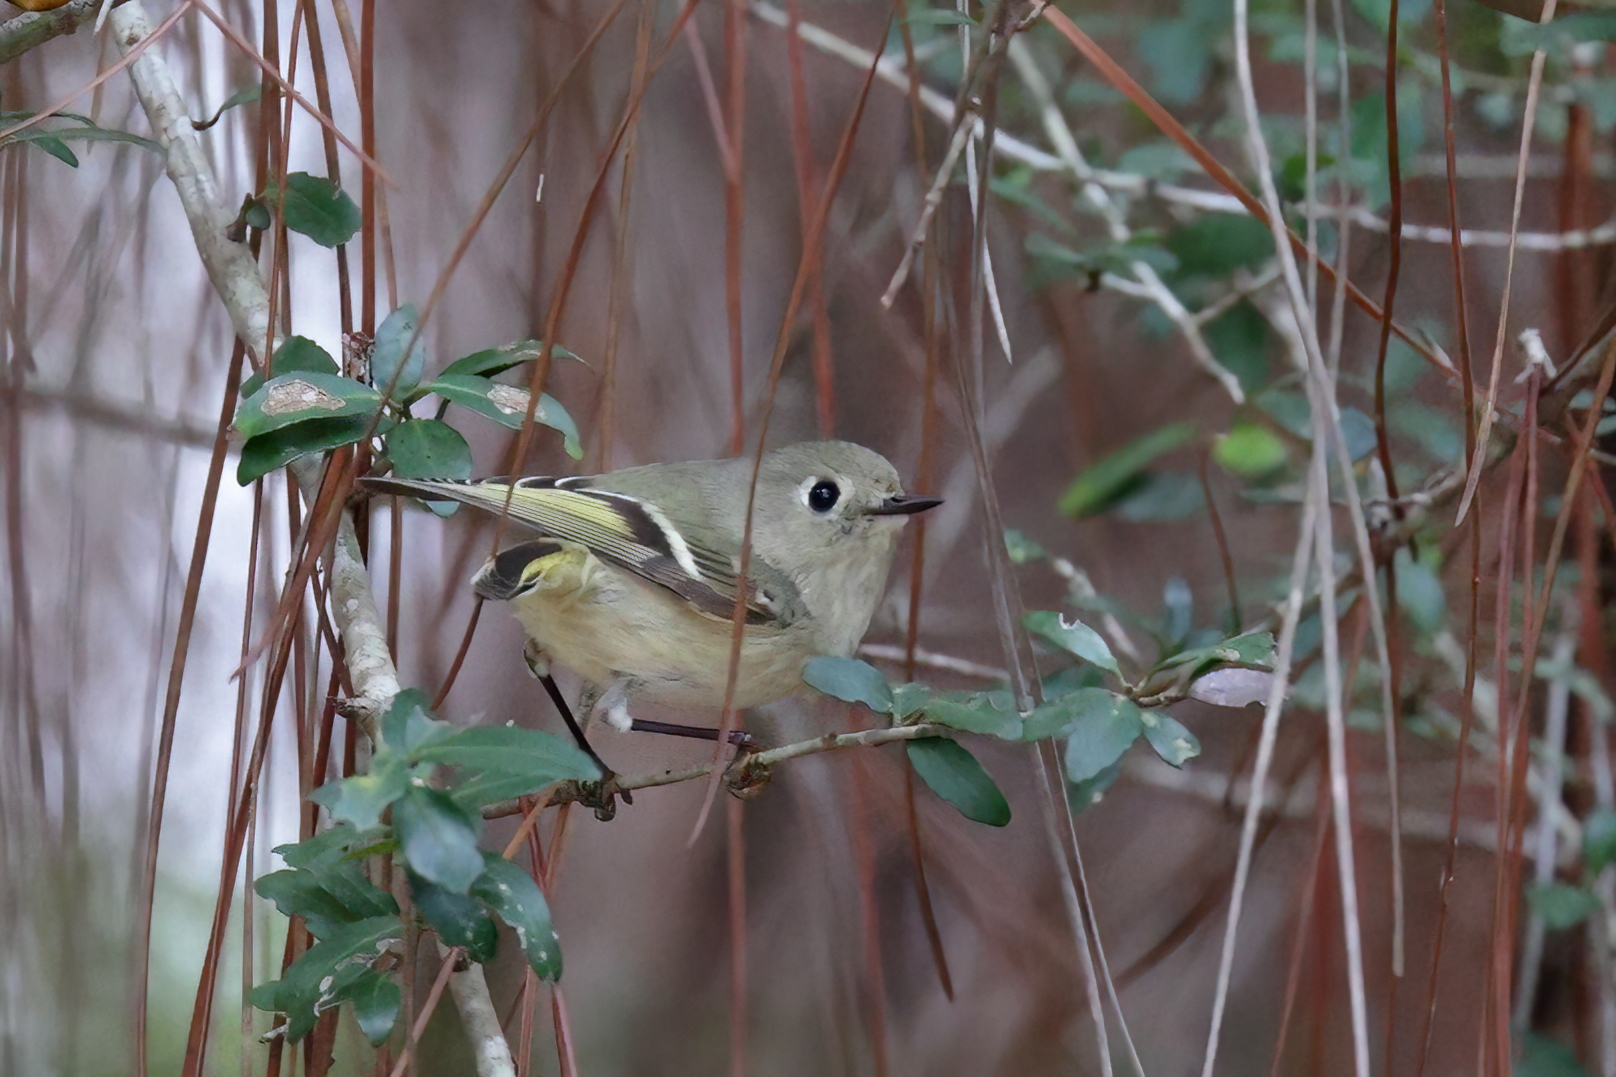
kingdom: Animalia
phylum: Chordata
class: Aves
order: Passeriformes
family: Regulidae
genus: Regulus
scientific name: Regulus calendula
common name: Ruby-crowned kinglet
